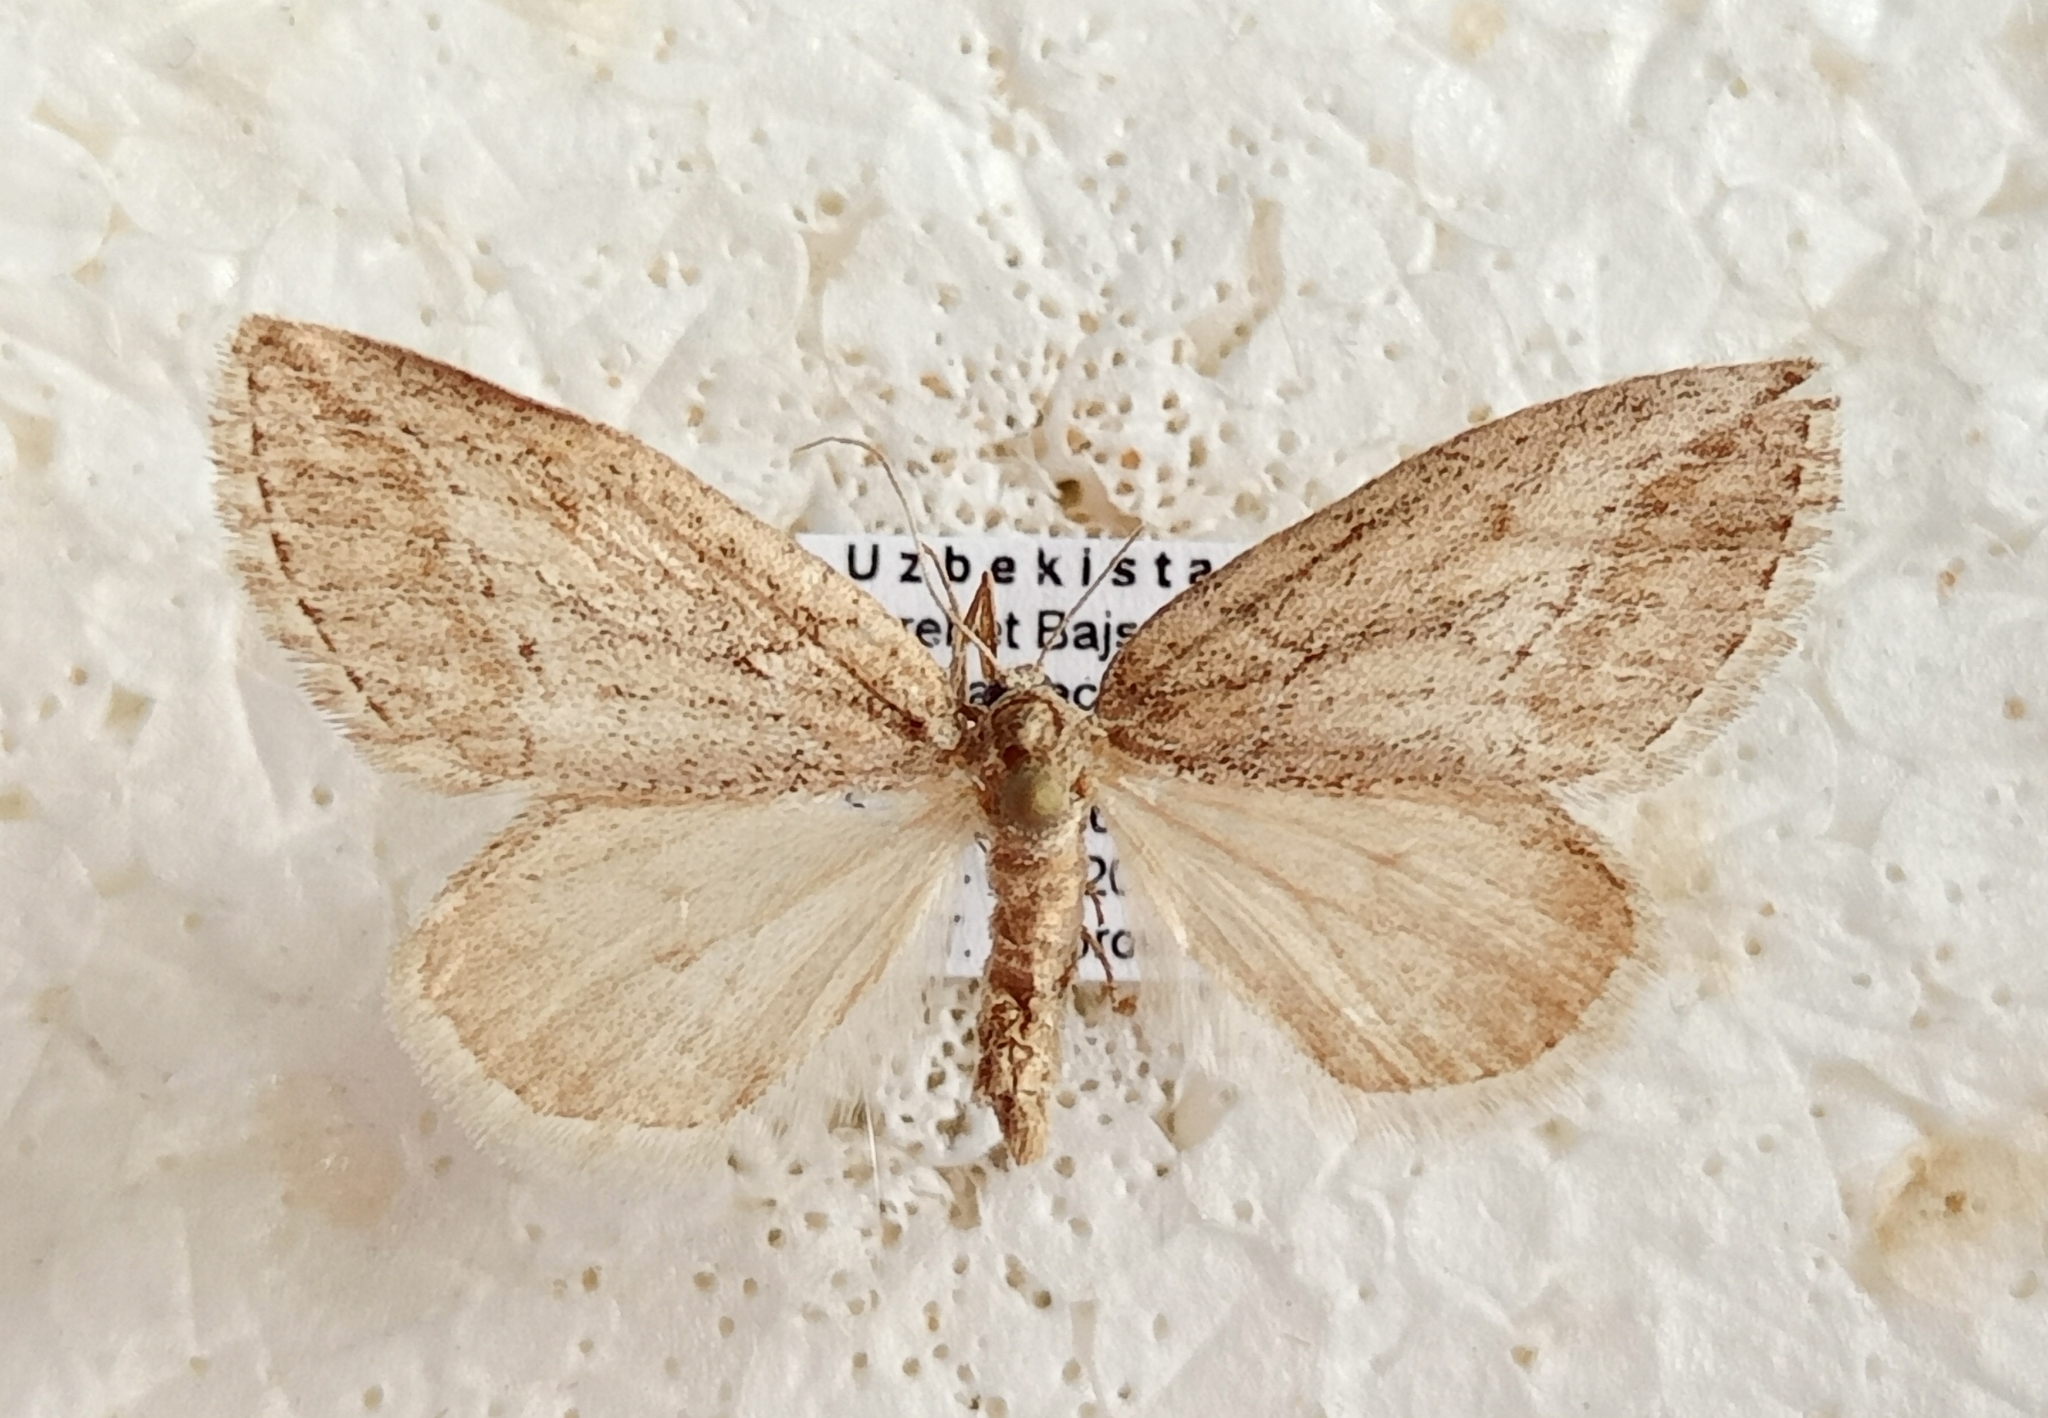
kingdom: Animalia
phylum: Arthropoda
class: Insecta
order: Lepidoptera
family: Geometridae
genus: Habermania
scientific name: Habermania oxygonaria
